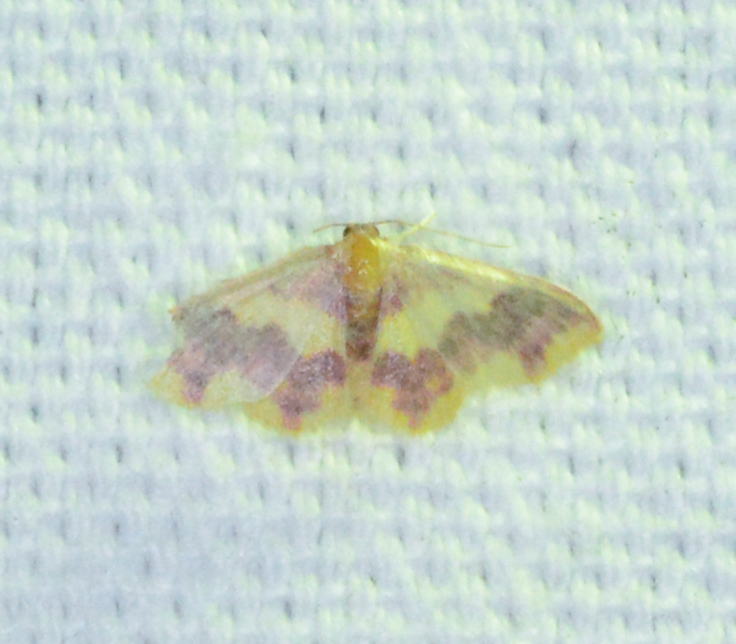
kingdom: Animalia
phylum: Arthropoda
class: Insecta
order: Lepidoptera
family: Geometridae
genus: Lophosis
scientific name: Lophosis labeculata
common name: Stained lophosis moth
